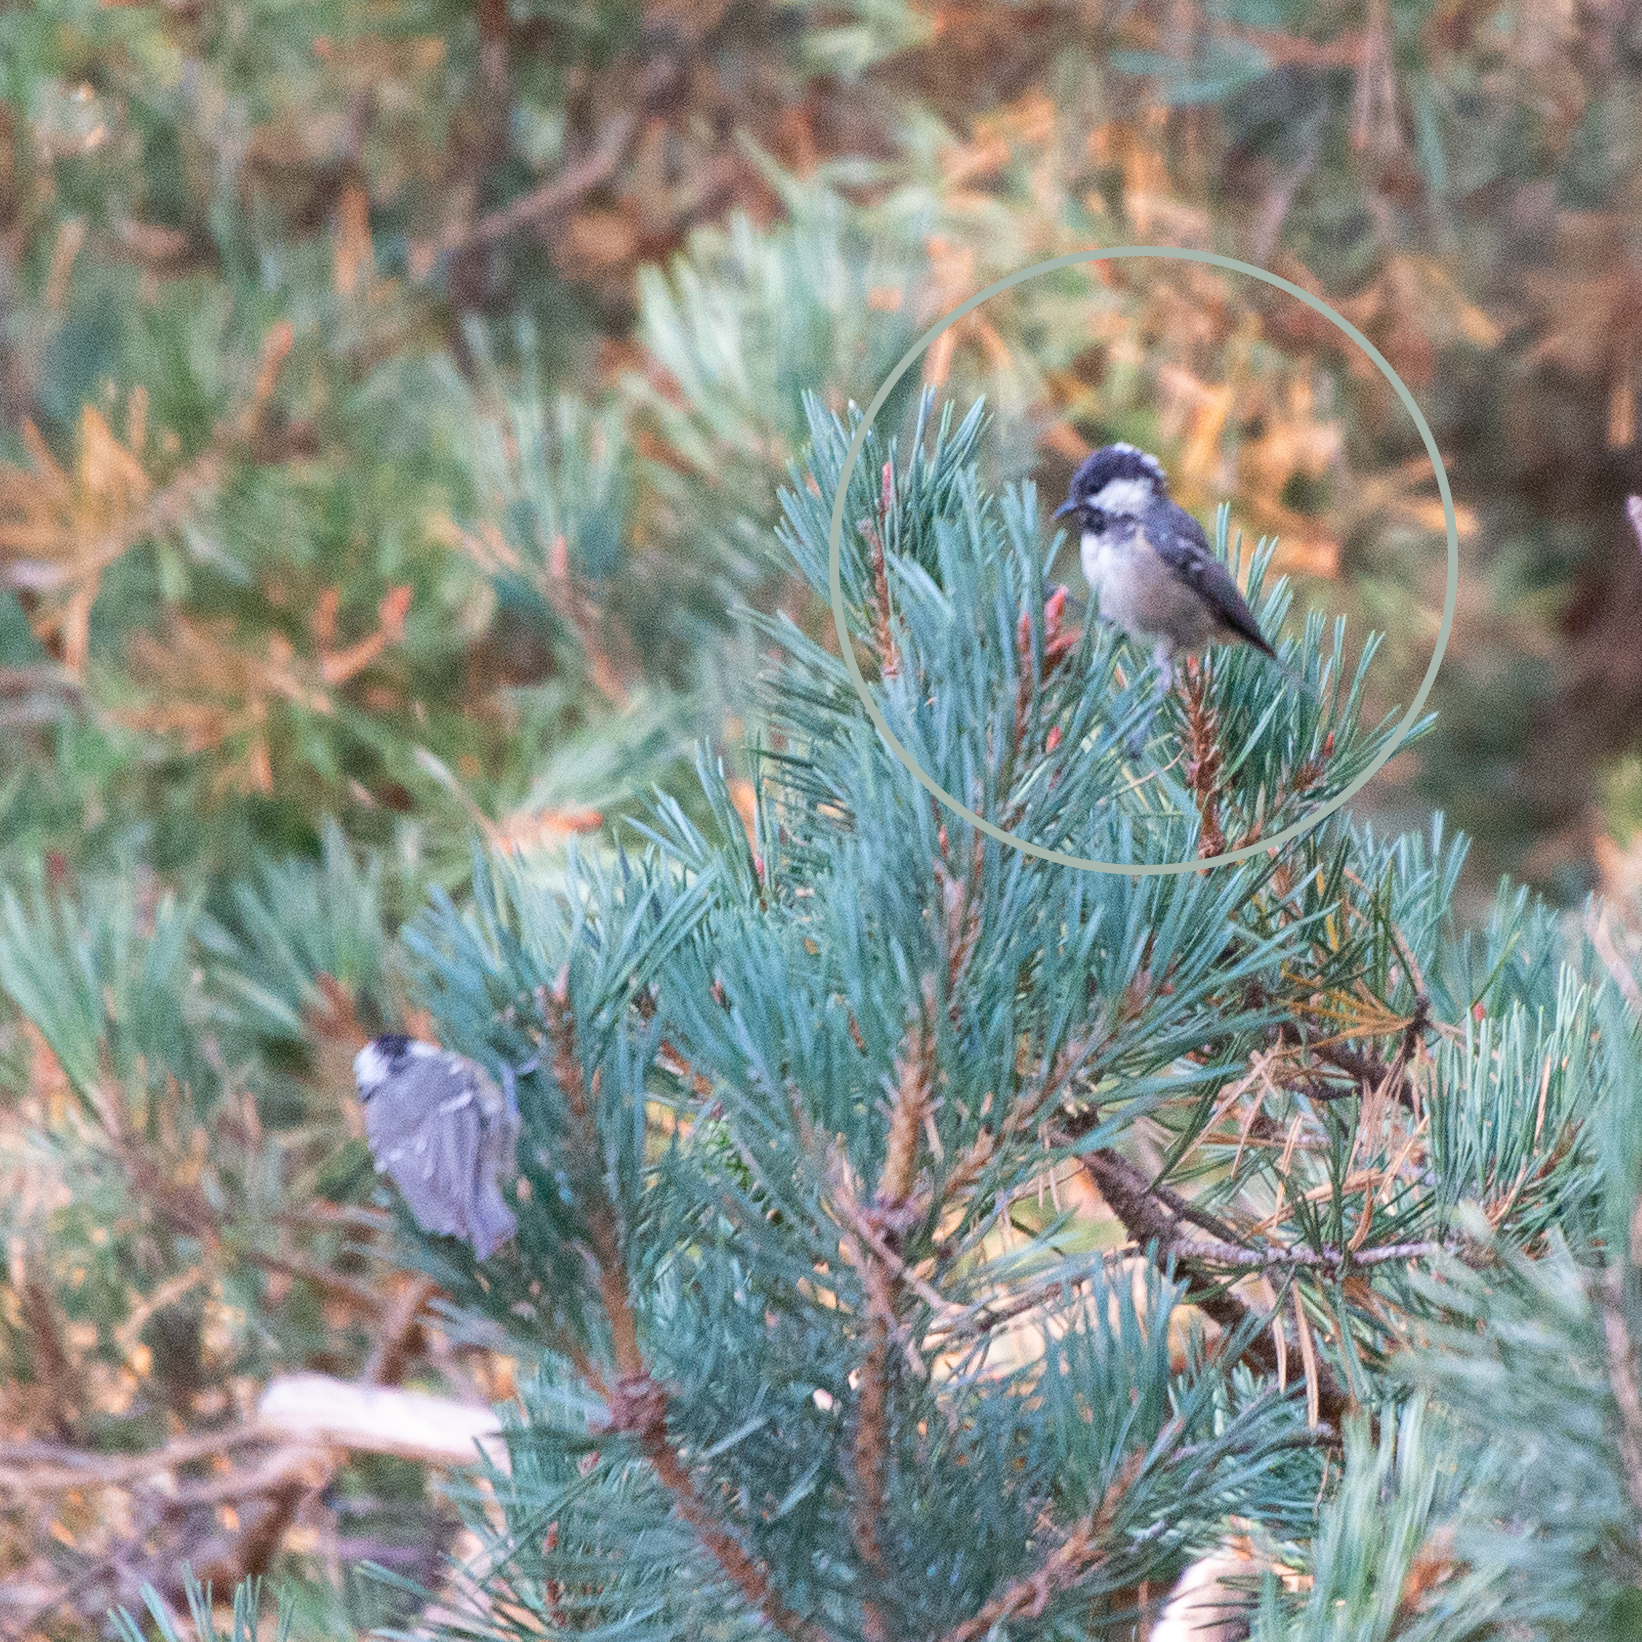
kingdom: Animalia
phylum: Chordata
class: Aves
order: Passeriformes
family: Paridae
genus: Periparus
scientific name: Periparus ater
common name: Coal tit
